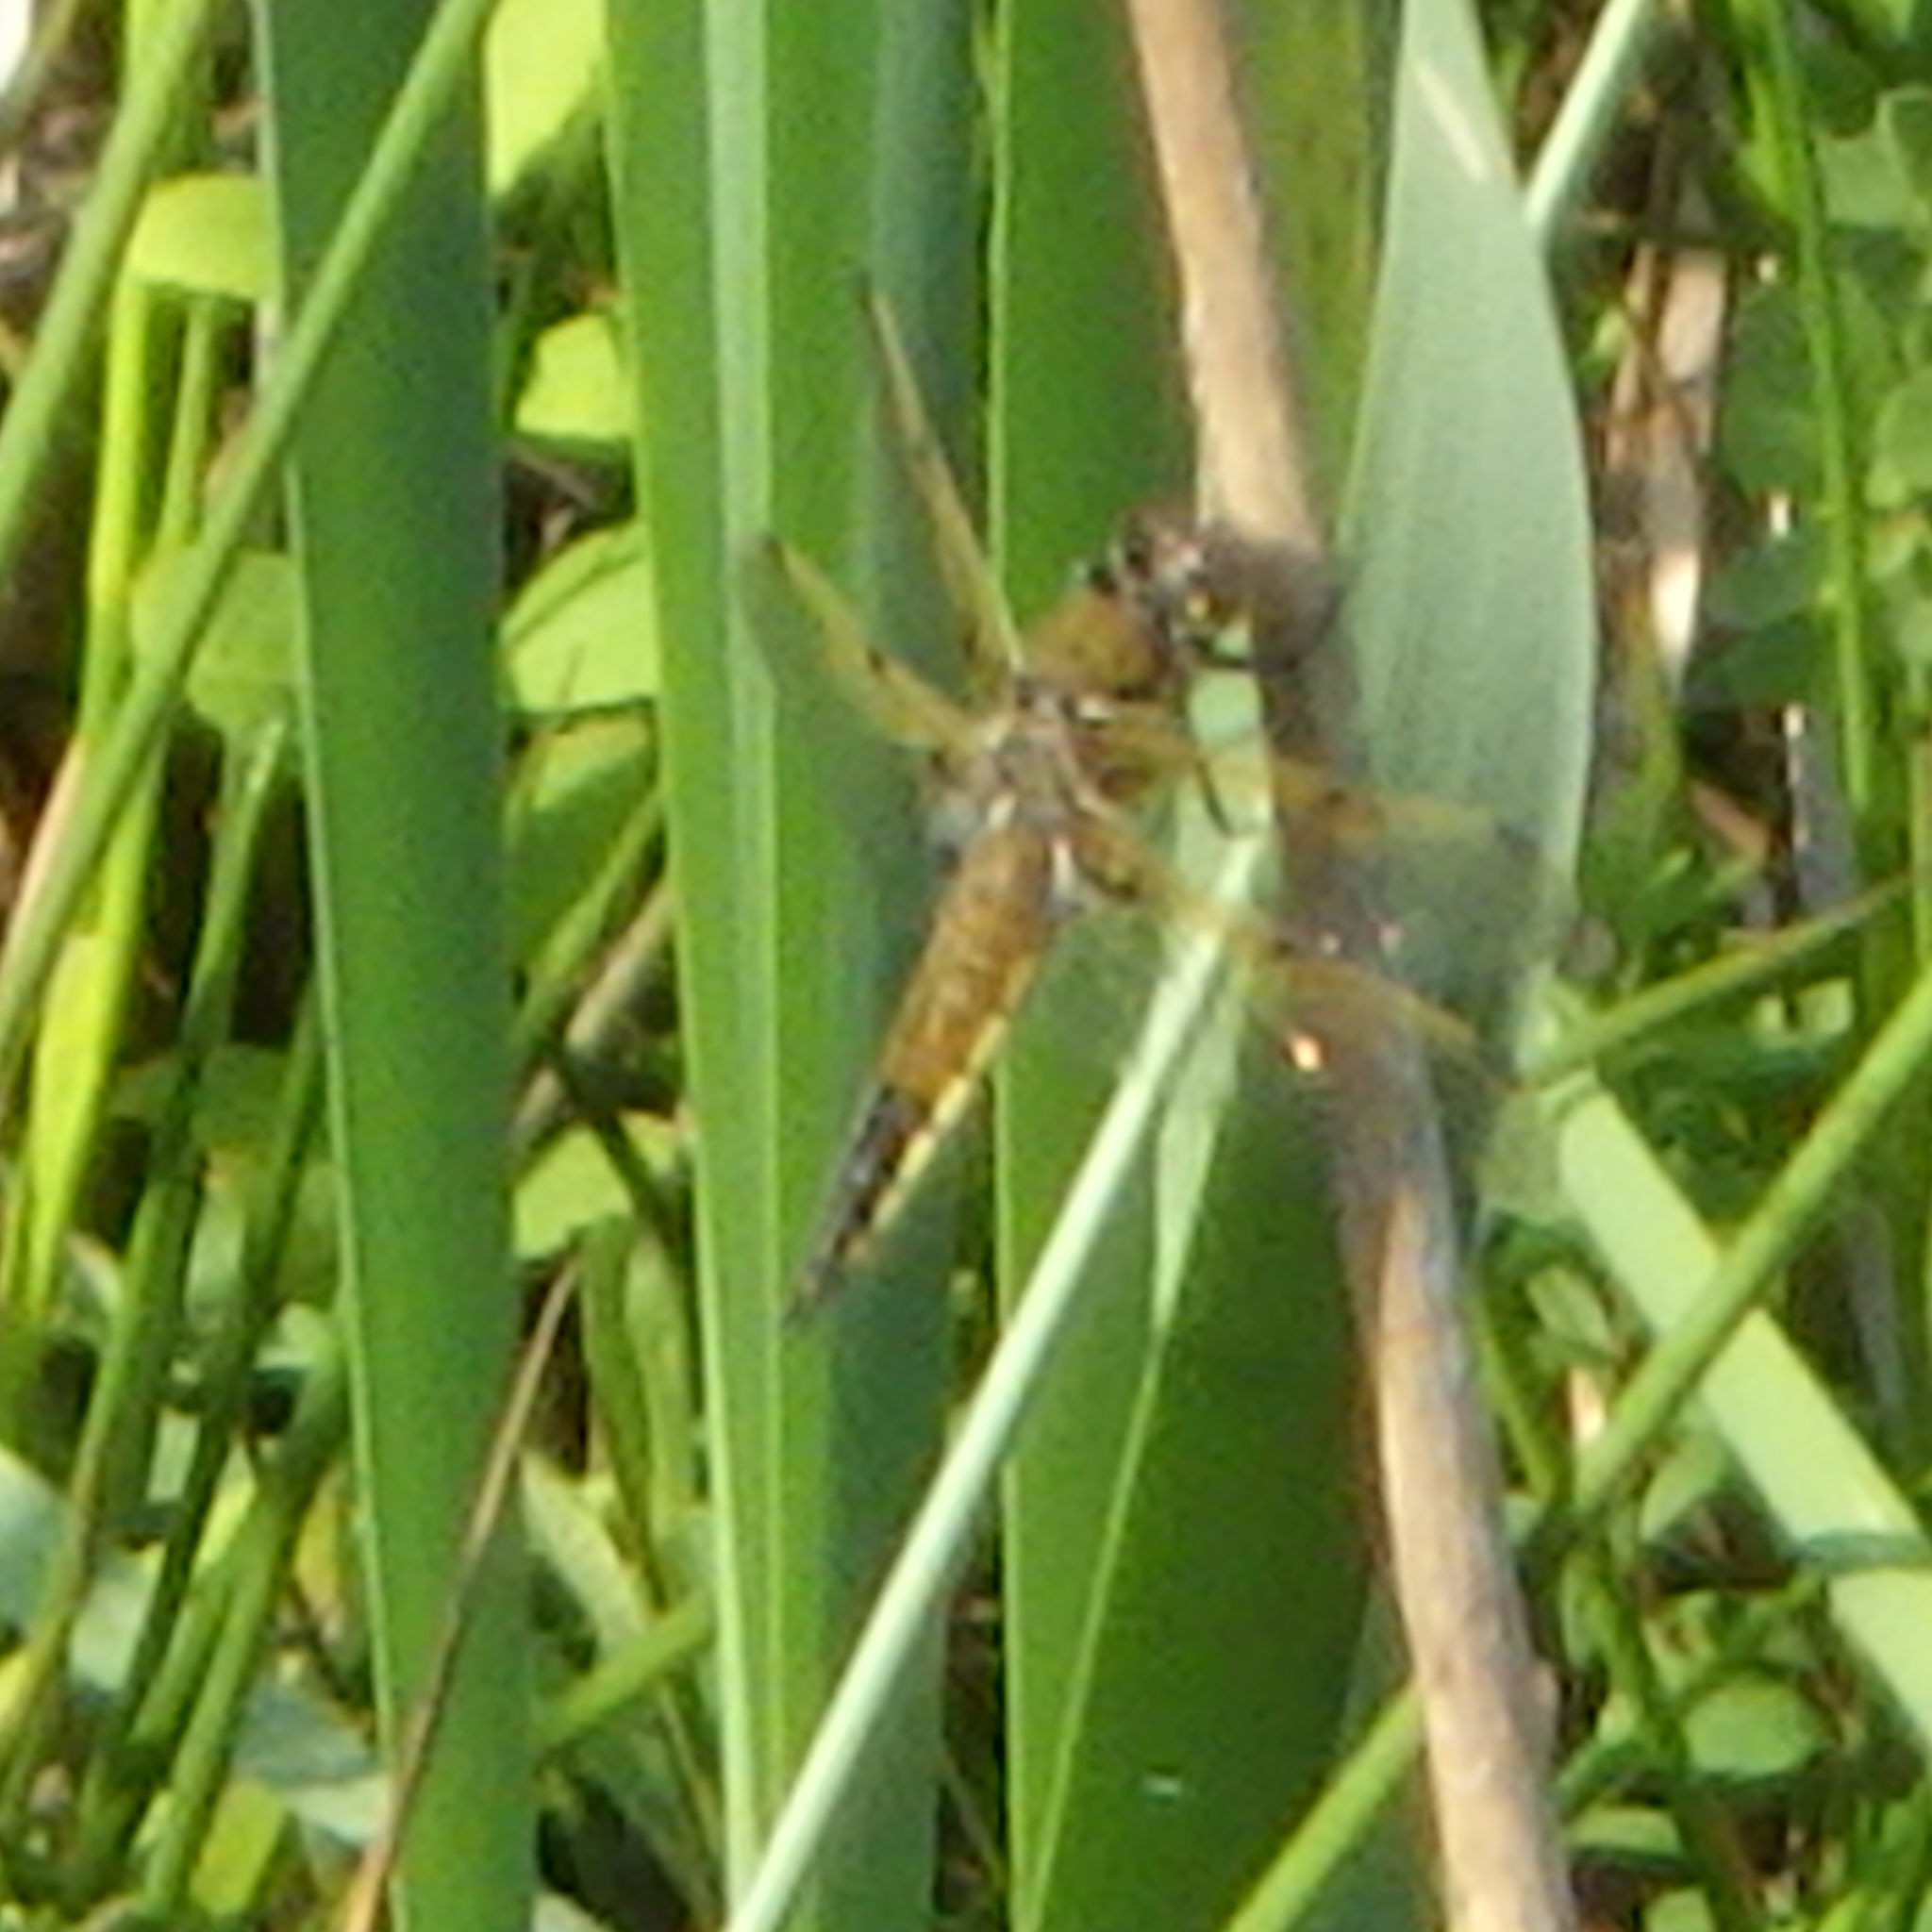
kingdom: Animalia
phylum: Arthropoda
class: Insecta
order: Odonata
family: Libellulidae
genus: Libellula
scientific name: Libellula quadrimaculata
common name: Four-spotted chaser
